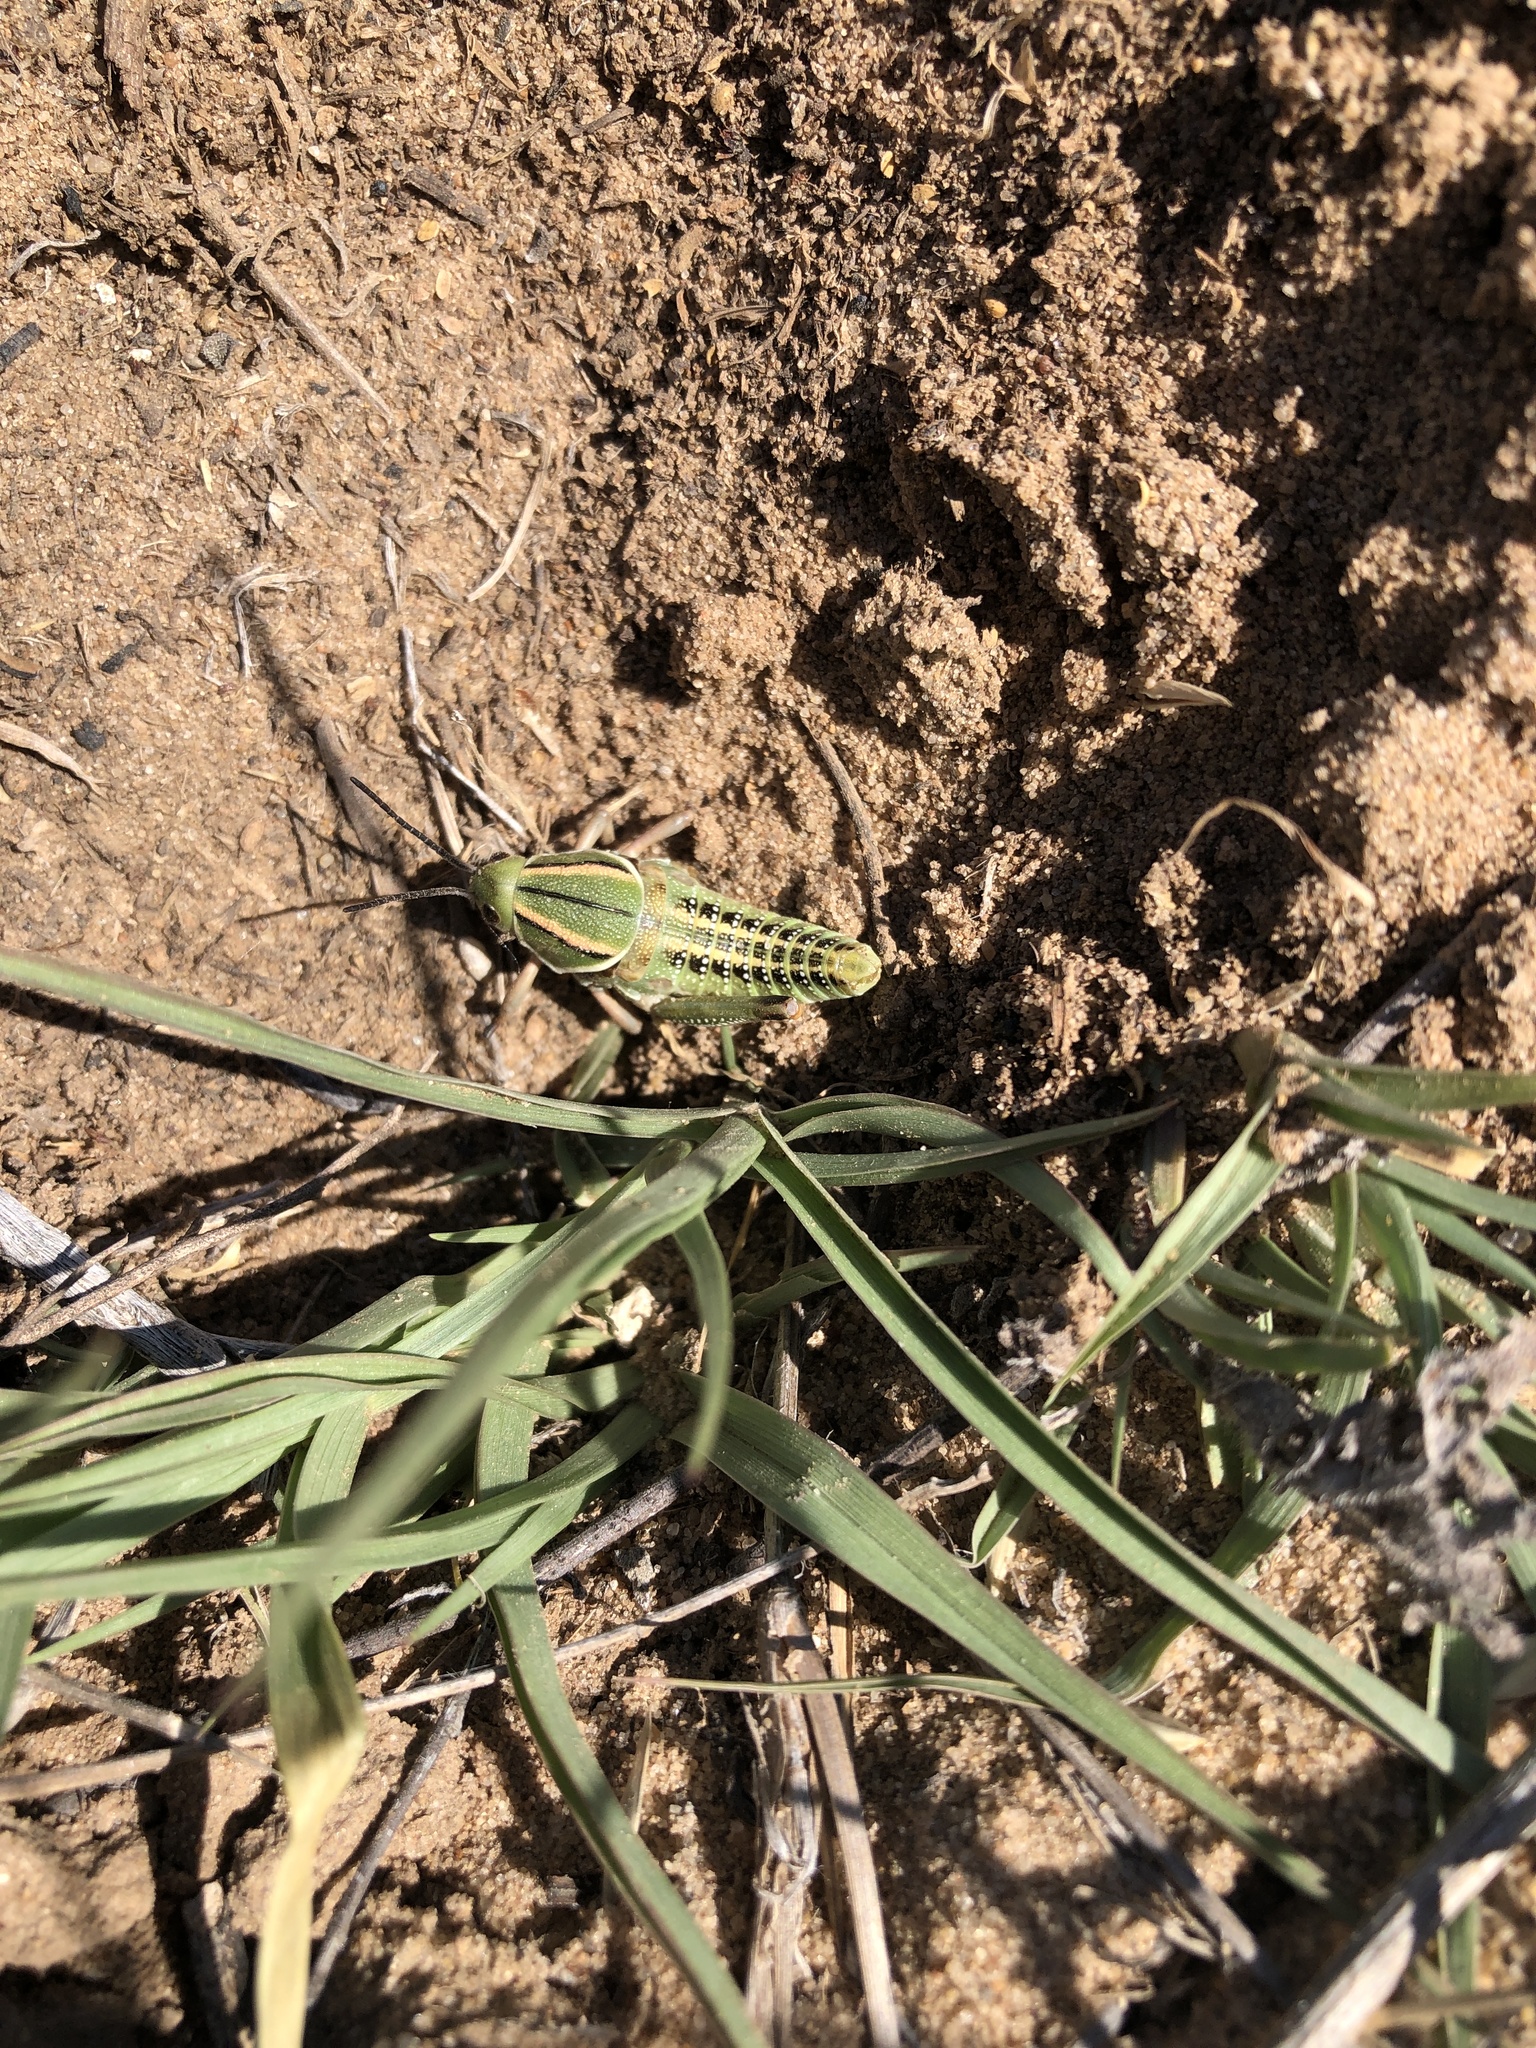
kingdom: Animalia
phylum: Arthropoda
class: Insecta
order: Orthoptera
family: Romaleidae
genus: Brachystola
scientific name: Brachystola magna
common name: Plains lubber grasshopper
